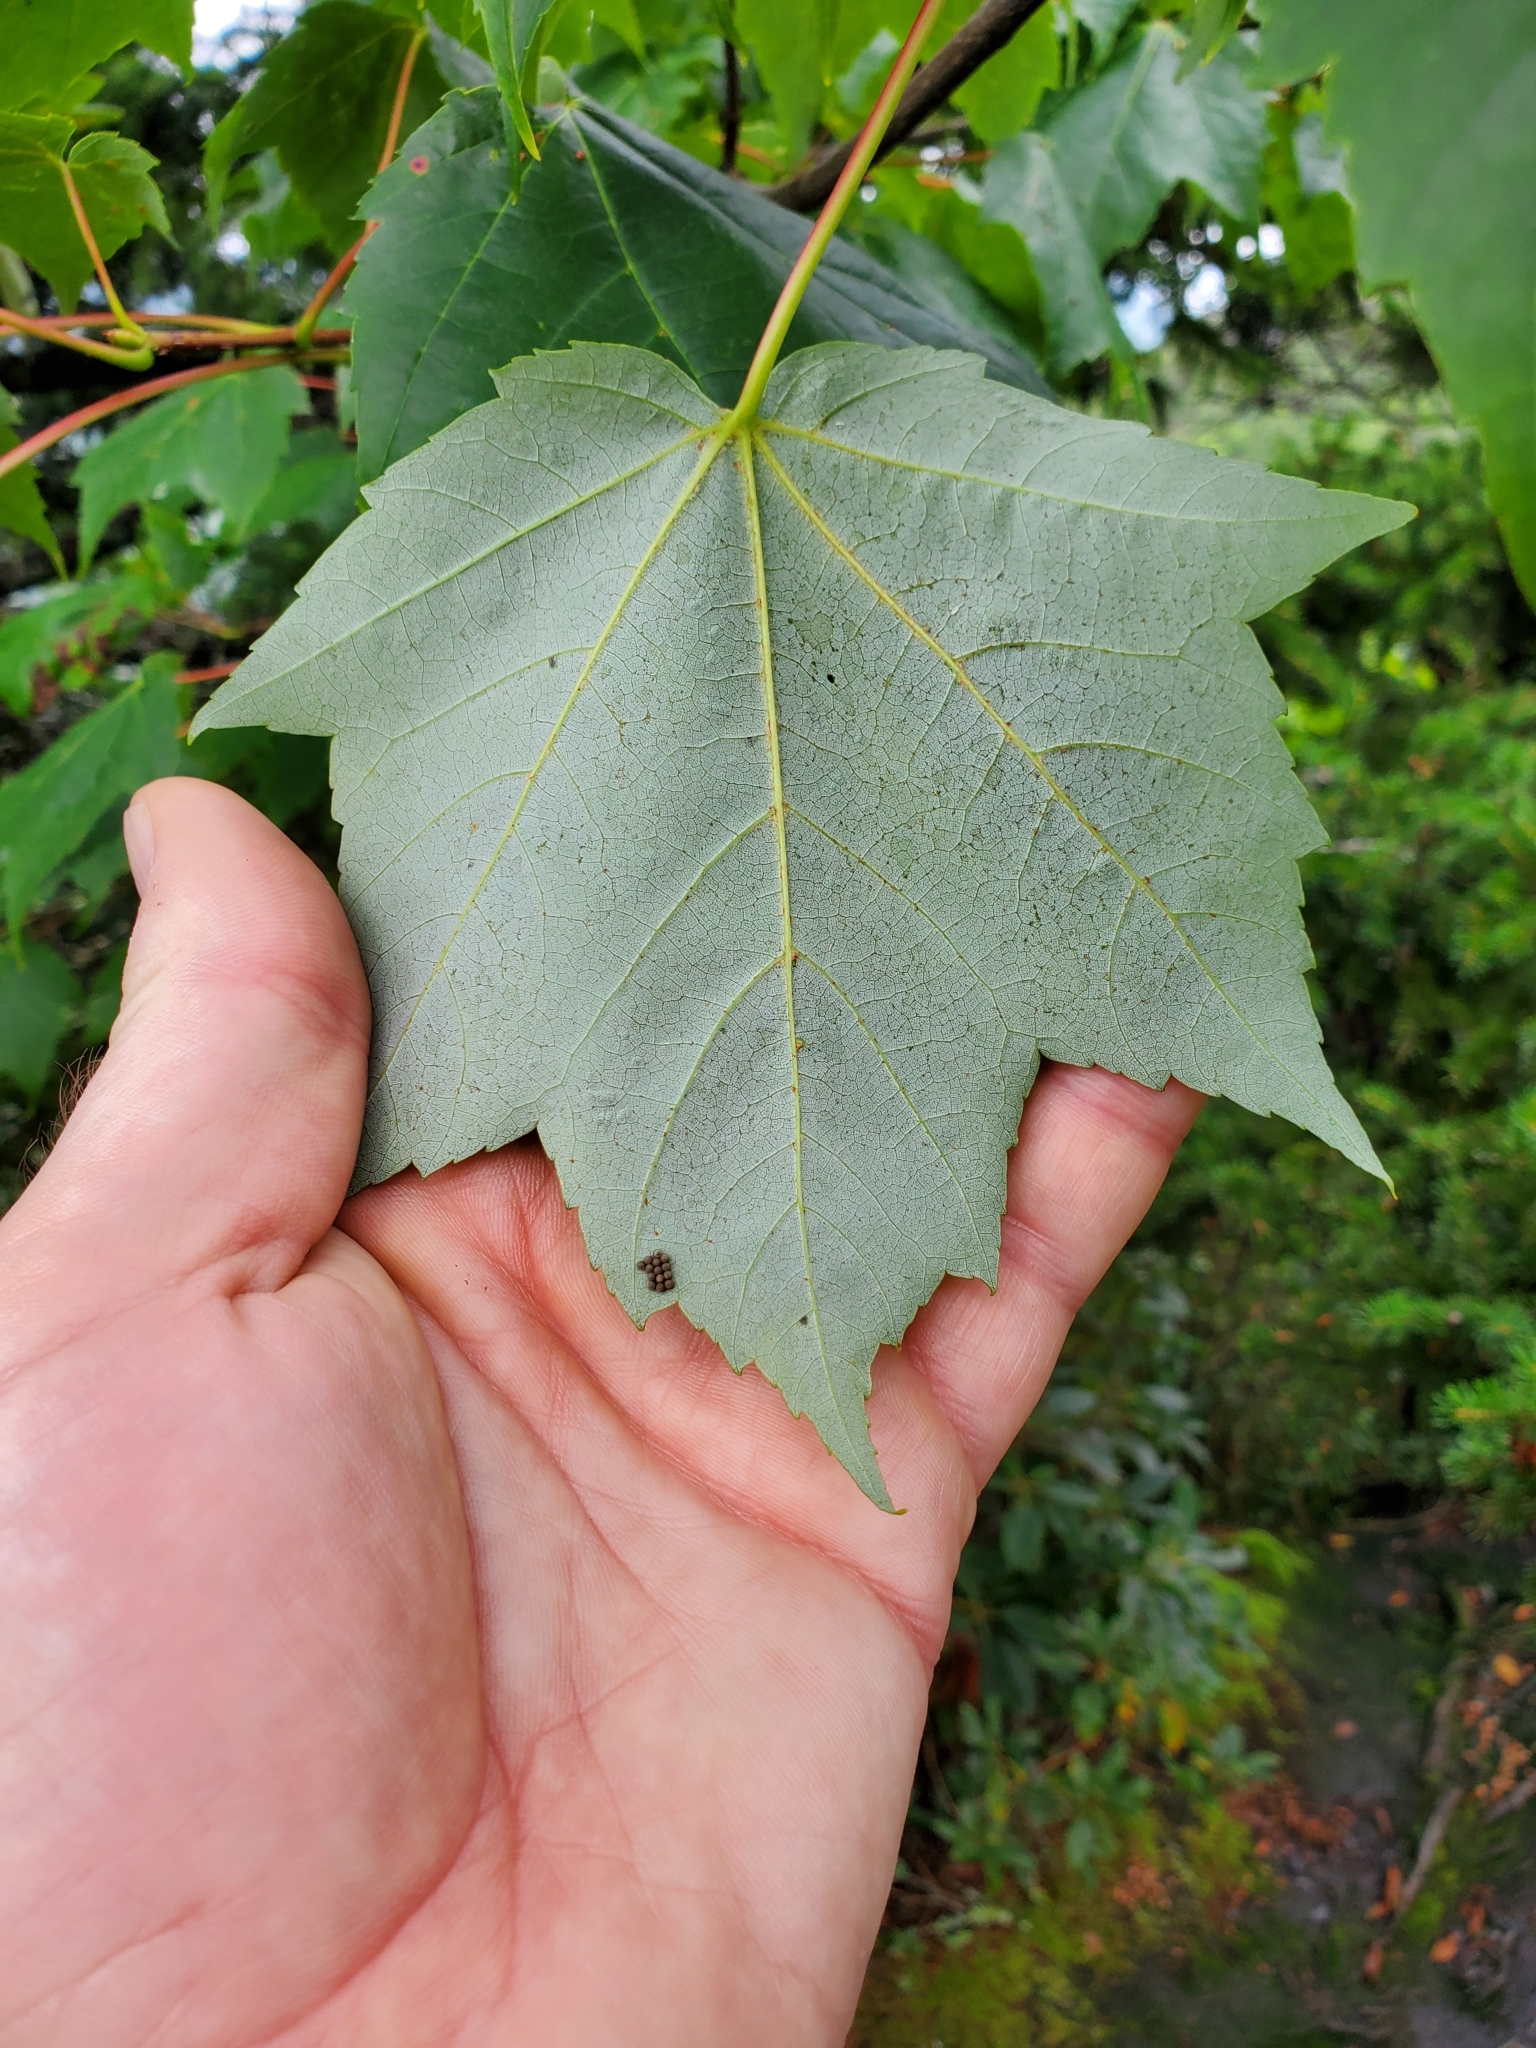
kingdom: Plantae
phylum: Tracheophyta
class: Magnoliopsida
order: Sapindales
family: Sapindaceae
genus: Acer
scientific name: Acer rubrum
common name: Red maple
